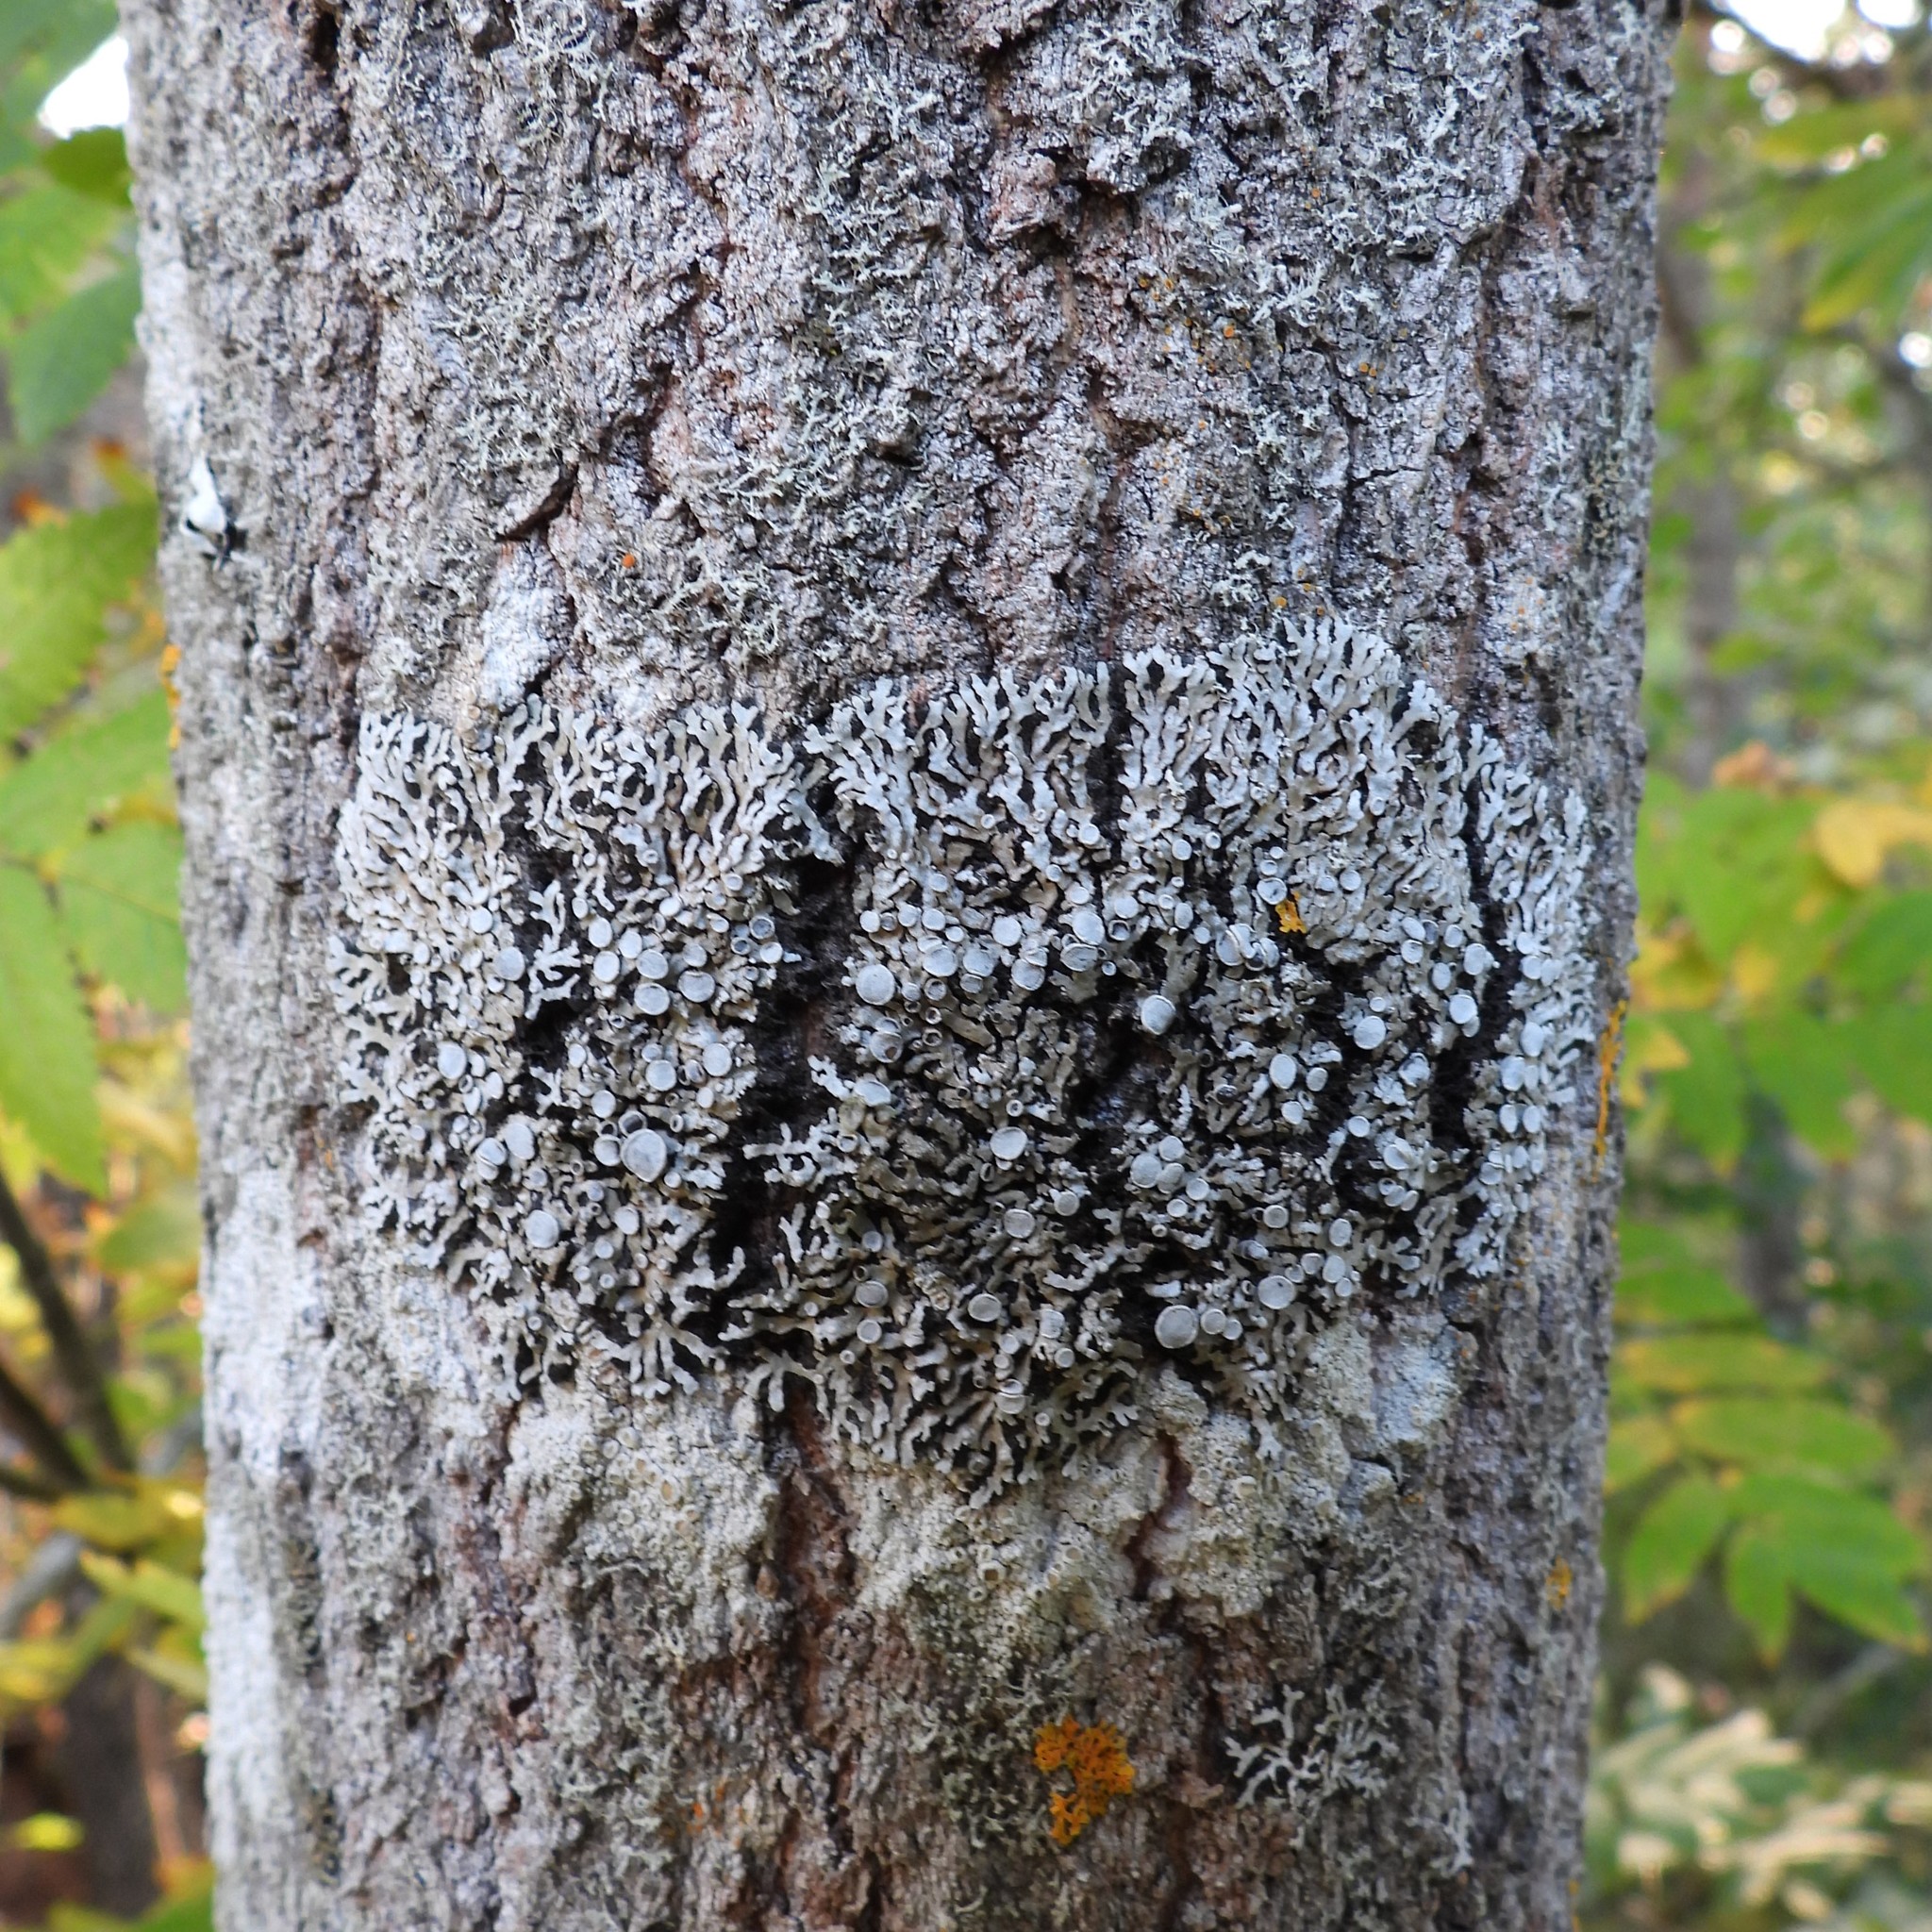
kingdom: Fungi
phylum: Ascomycota
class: Lecanoromycetes
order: Caliciales
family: Physciaceae
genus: Physconia
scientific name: Physconia distorta
